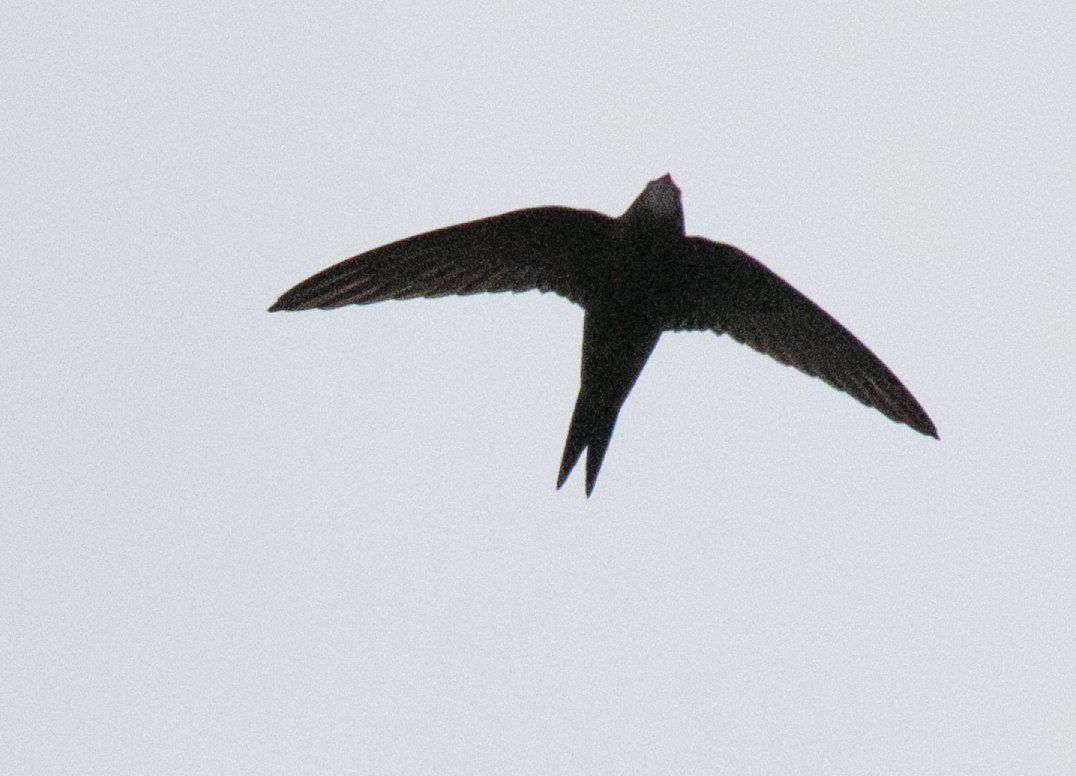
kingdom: Animalia
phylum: Chordata
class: Aves
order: Apodiformes
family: Apodidae
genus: Apus
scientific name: Apus apus
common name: Common swift
